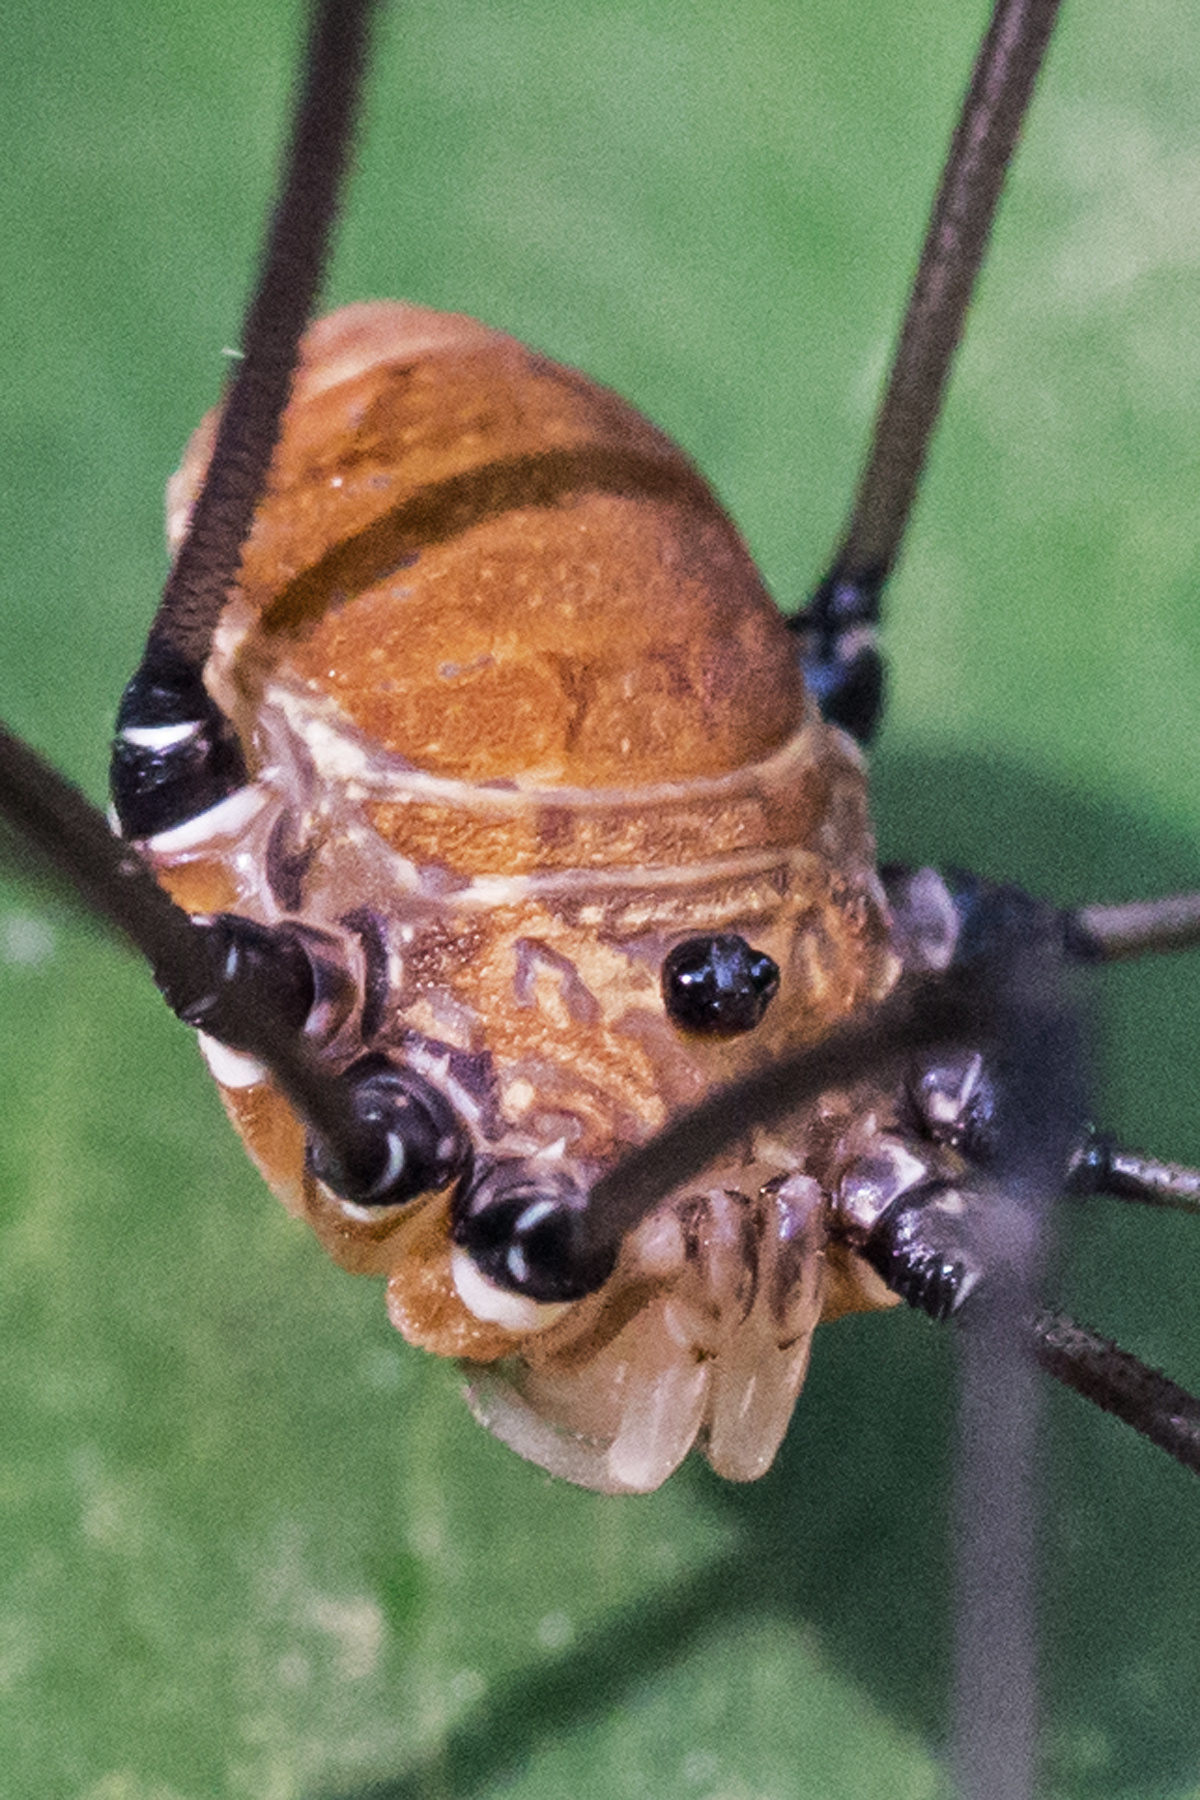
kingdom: Animalia
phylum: Arthropoda
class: Arachnida
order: Opiliones
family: Sclerosomatidae
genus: Leiobunum
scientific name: Leiobunum verrucosum
